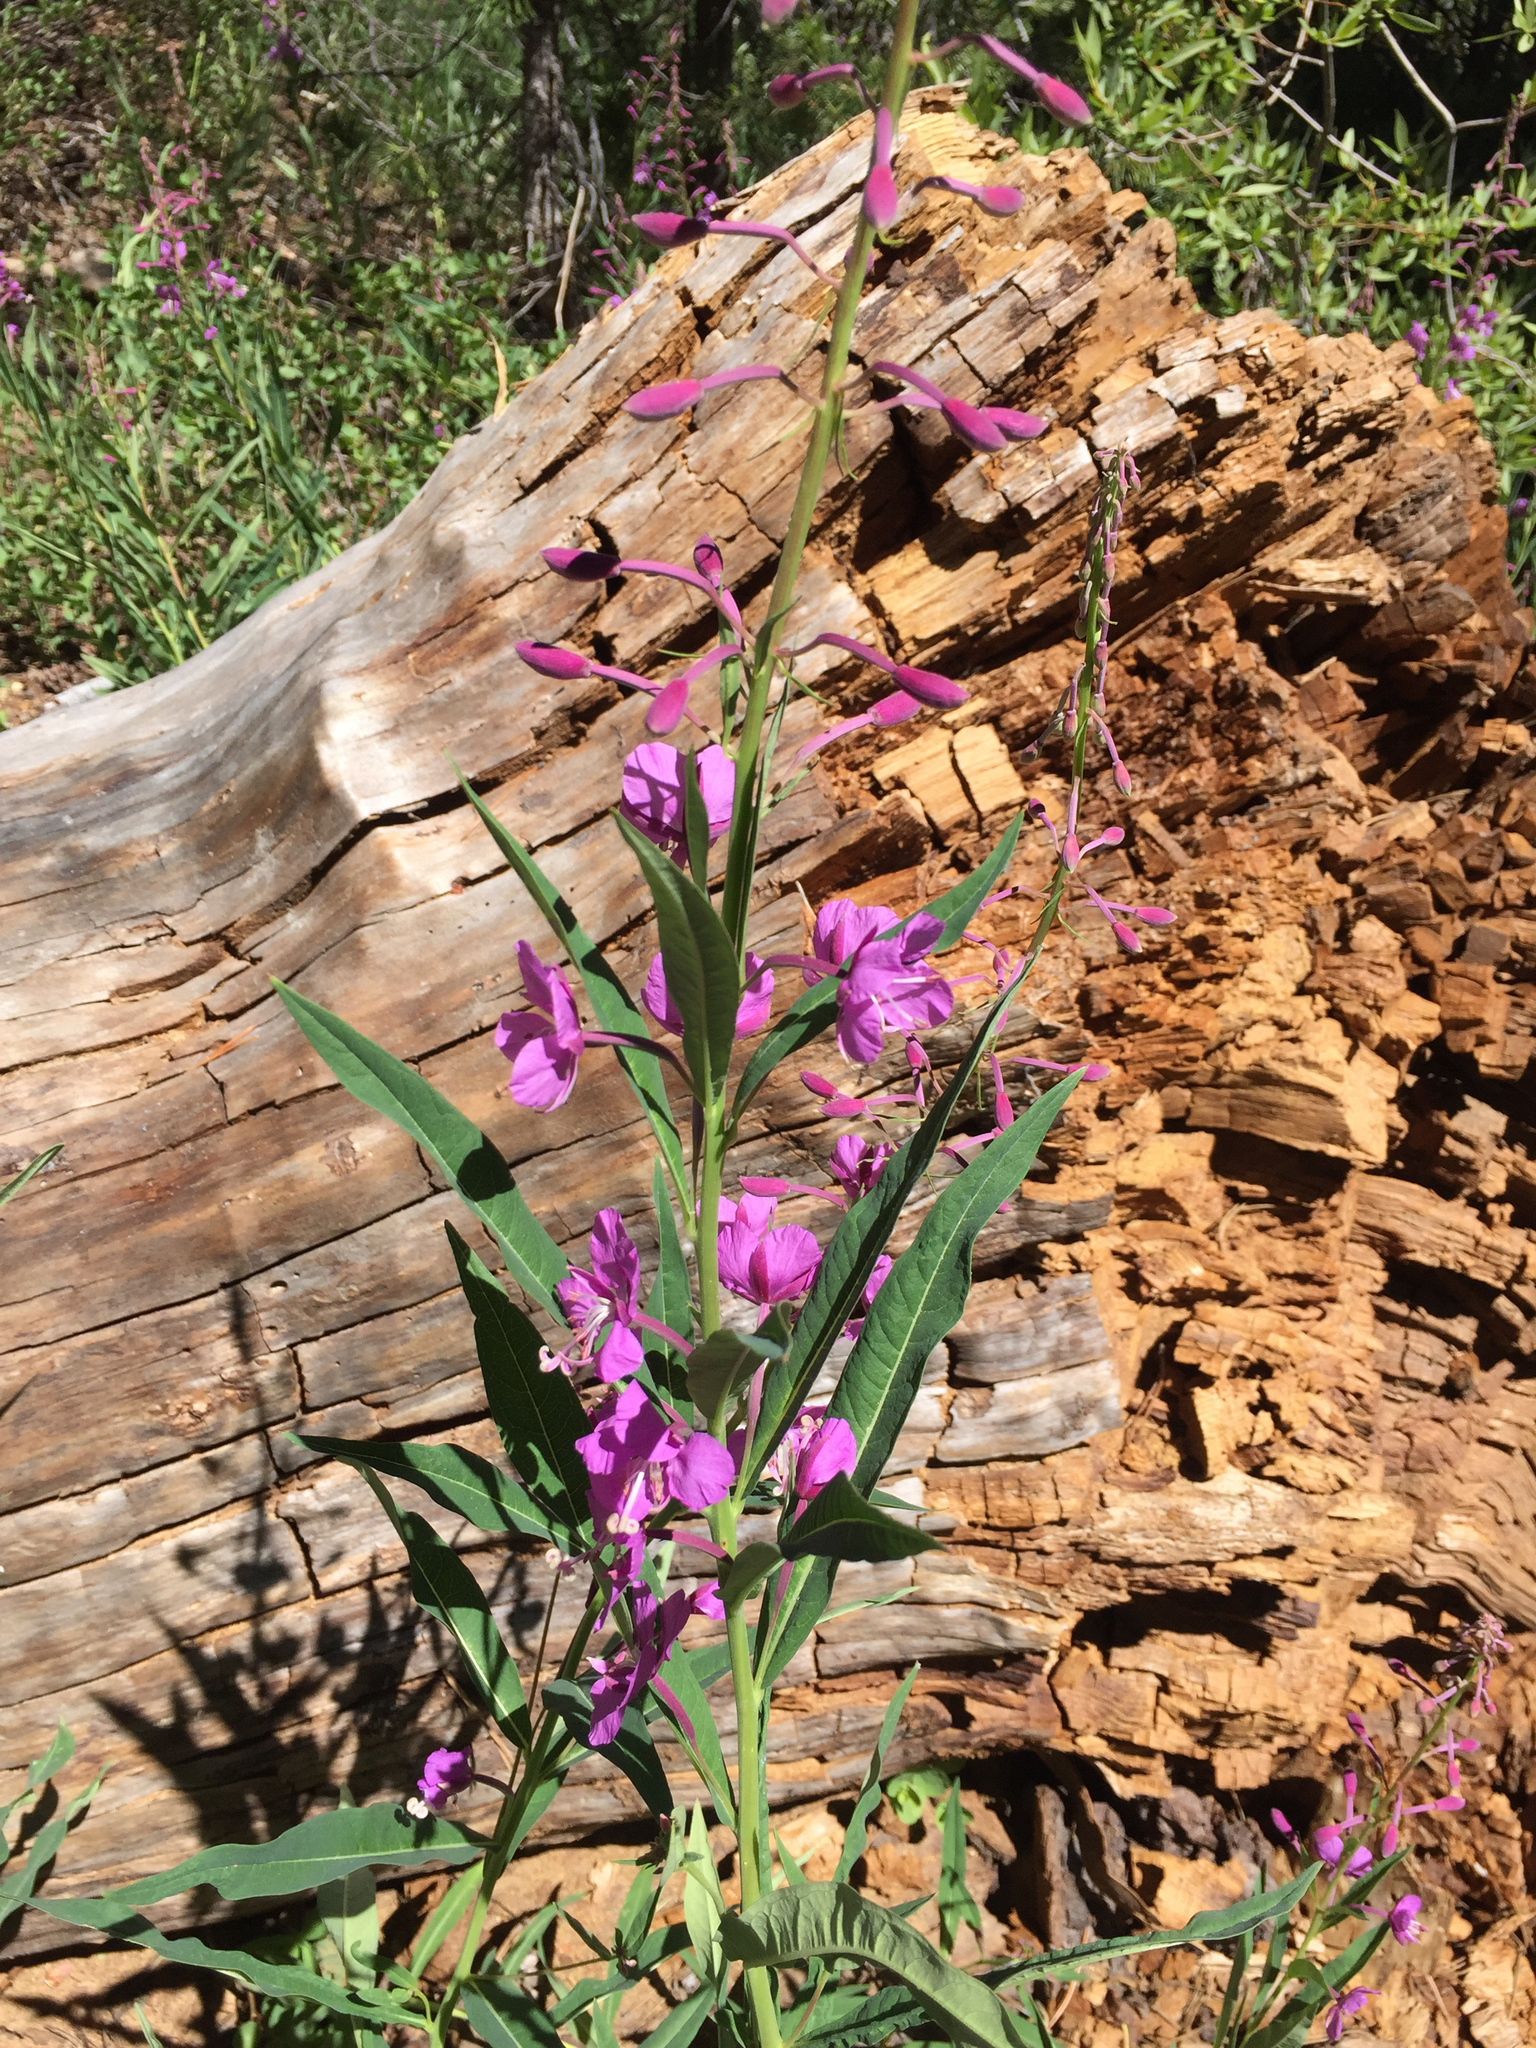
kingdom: Plantae
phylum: Tracheophyta
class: Magnoliopsida
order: Myrtales
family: Onagraceae
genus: Chamaenerion
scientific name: Chamaenerion angustifolium
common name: Fireweed
